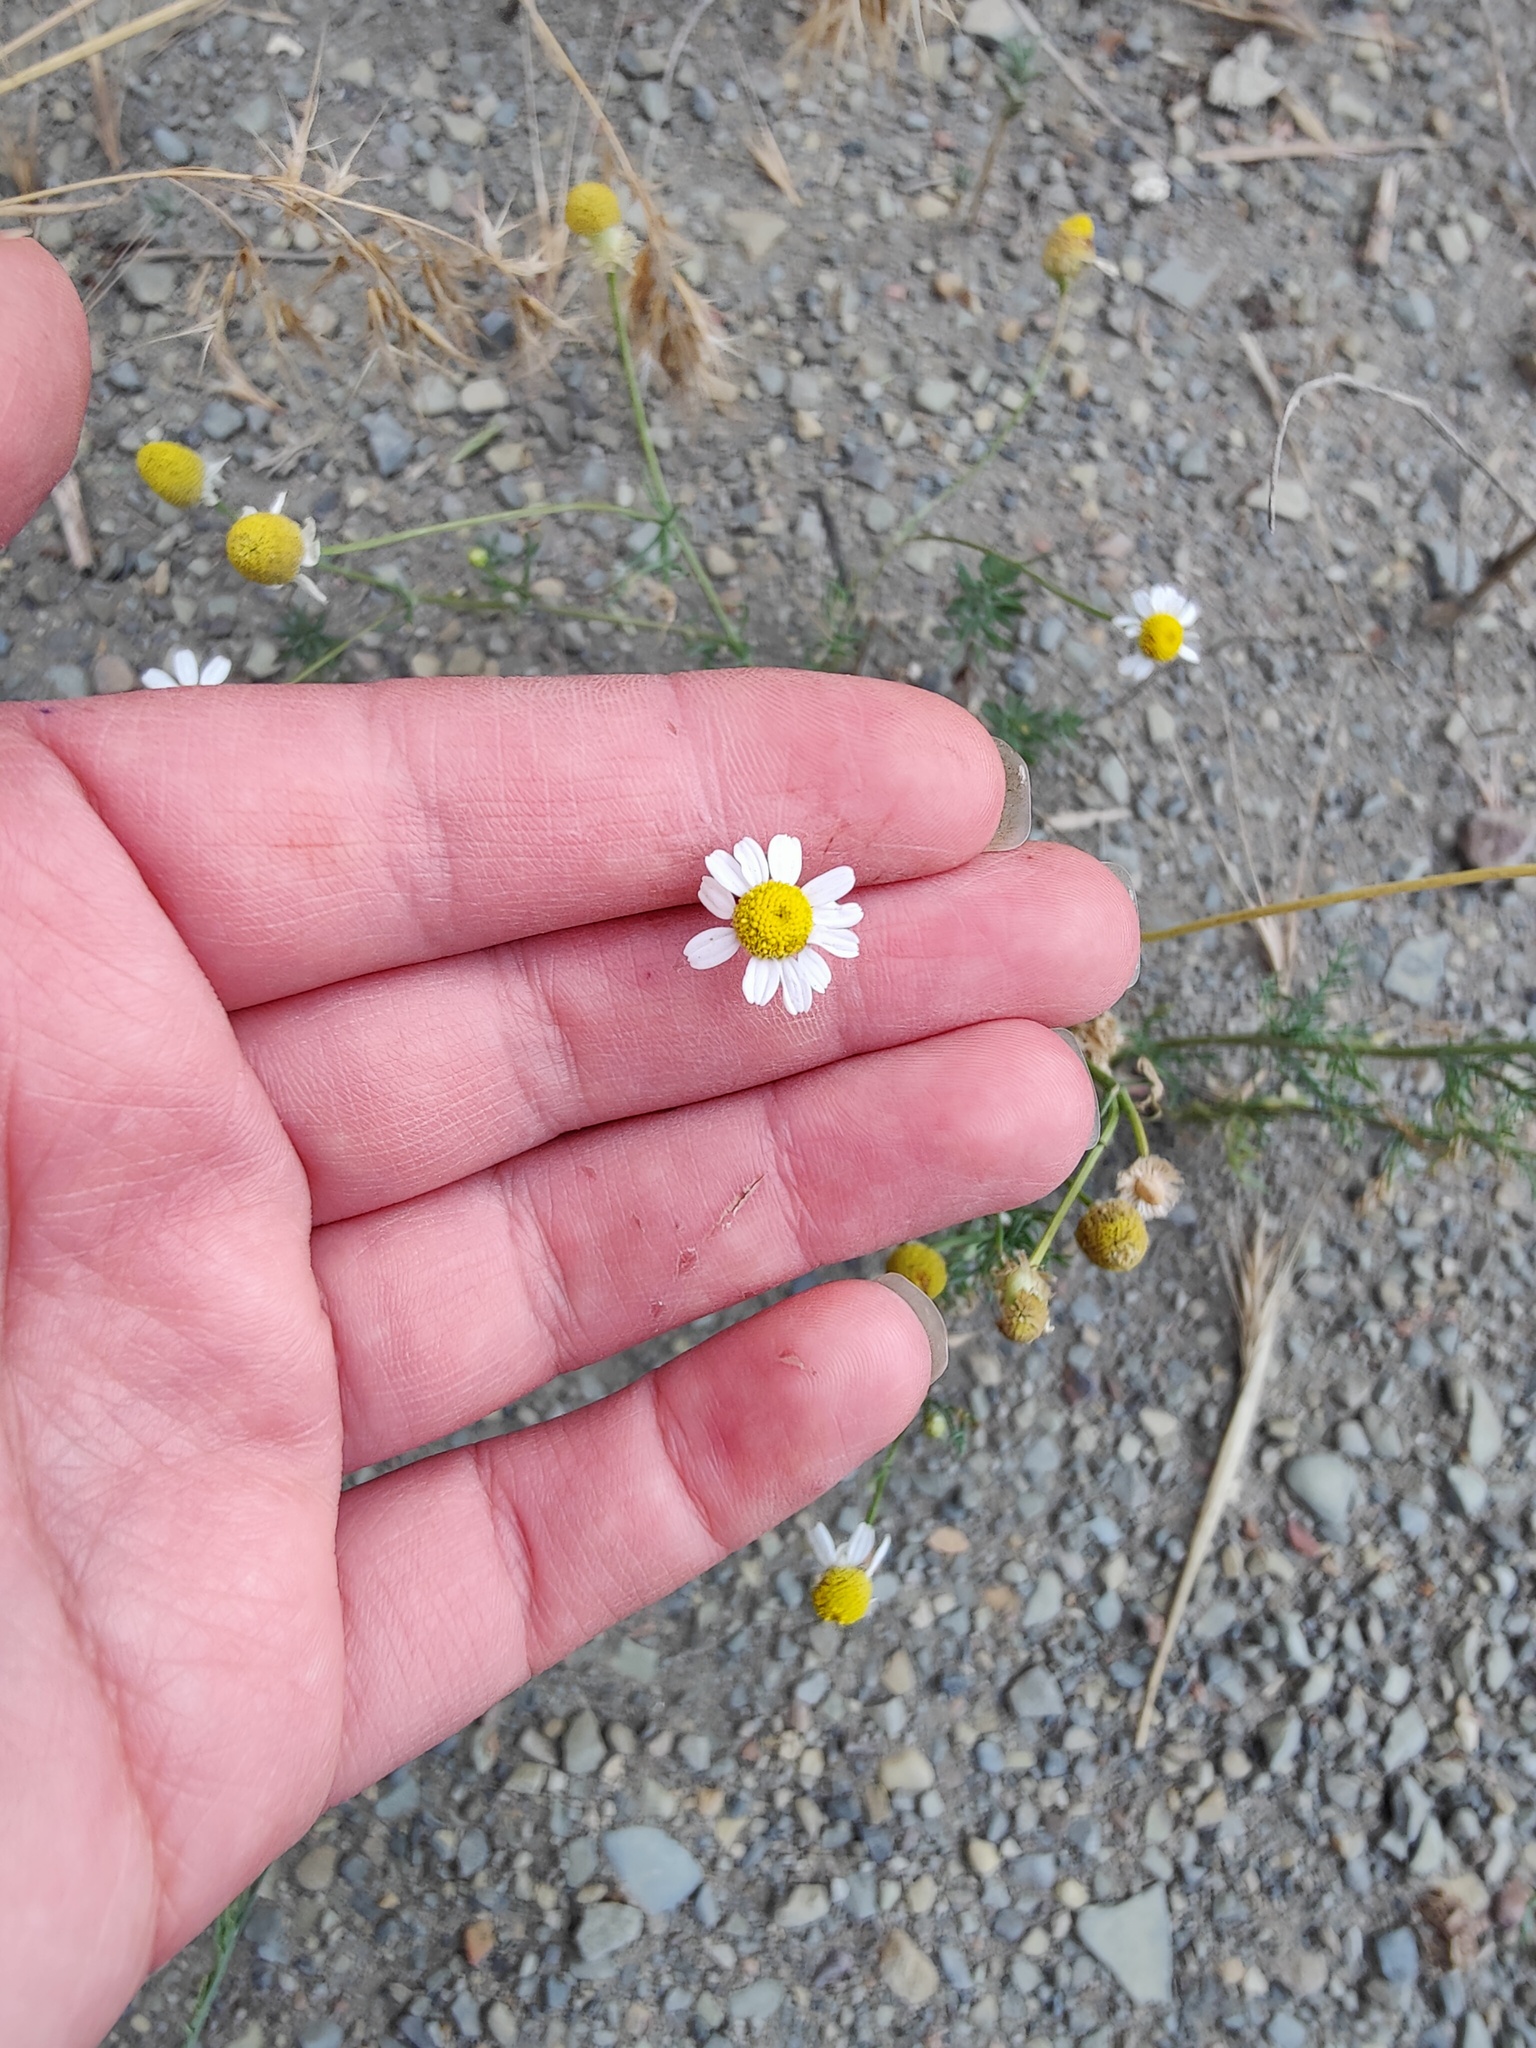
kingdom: Plantae
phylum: Tracheophyta
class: Magnoliopsida
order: Asterales
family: Asteraceae
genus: Matricaria
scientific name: Matricaria chamomilla
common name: Scented mayweed
